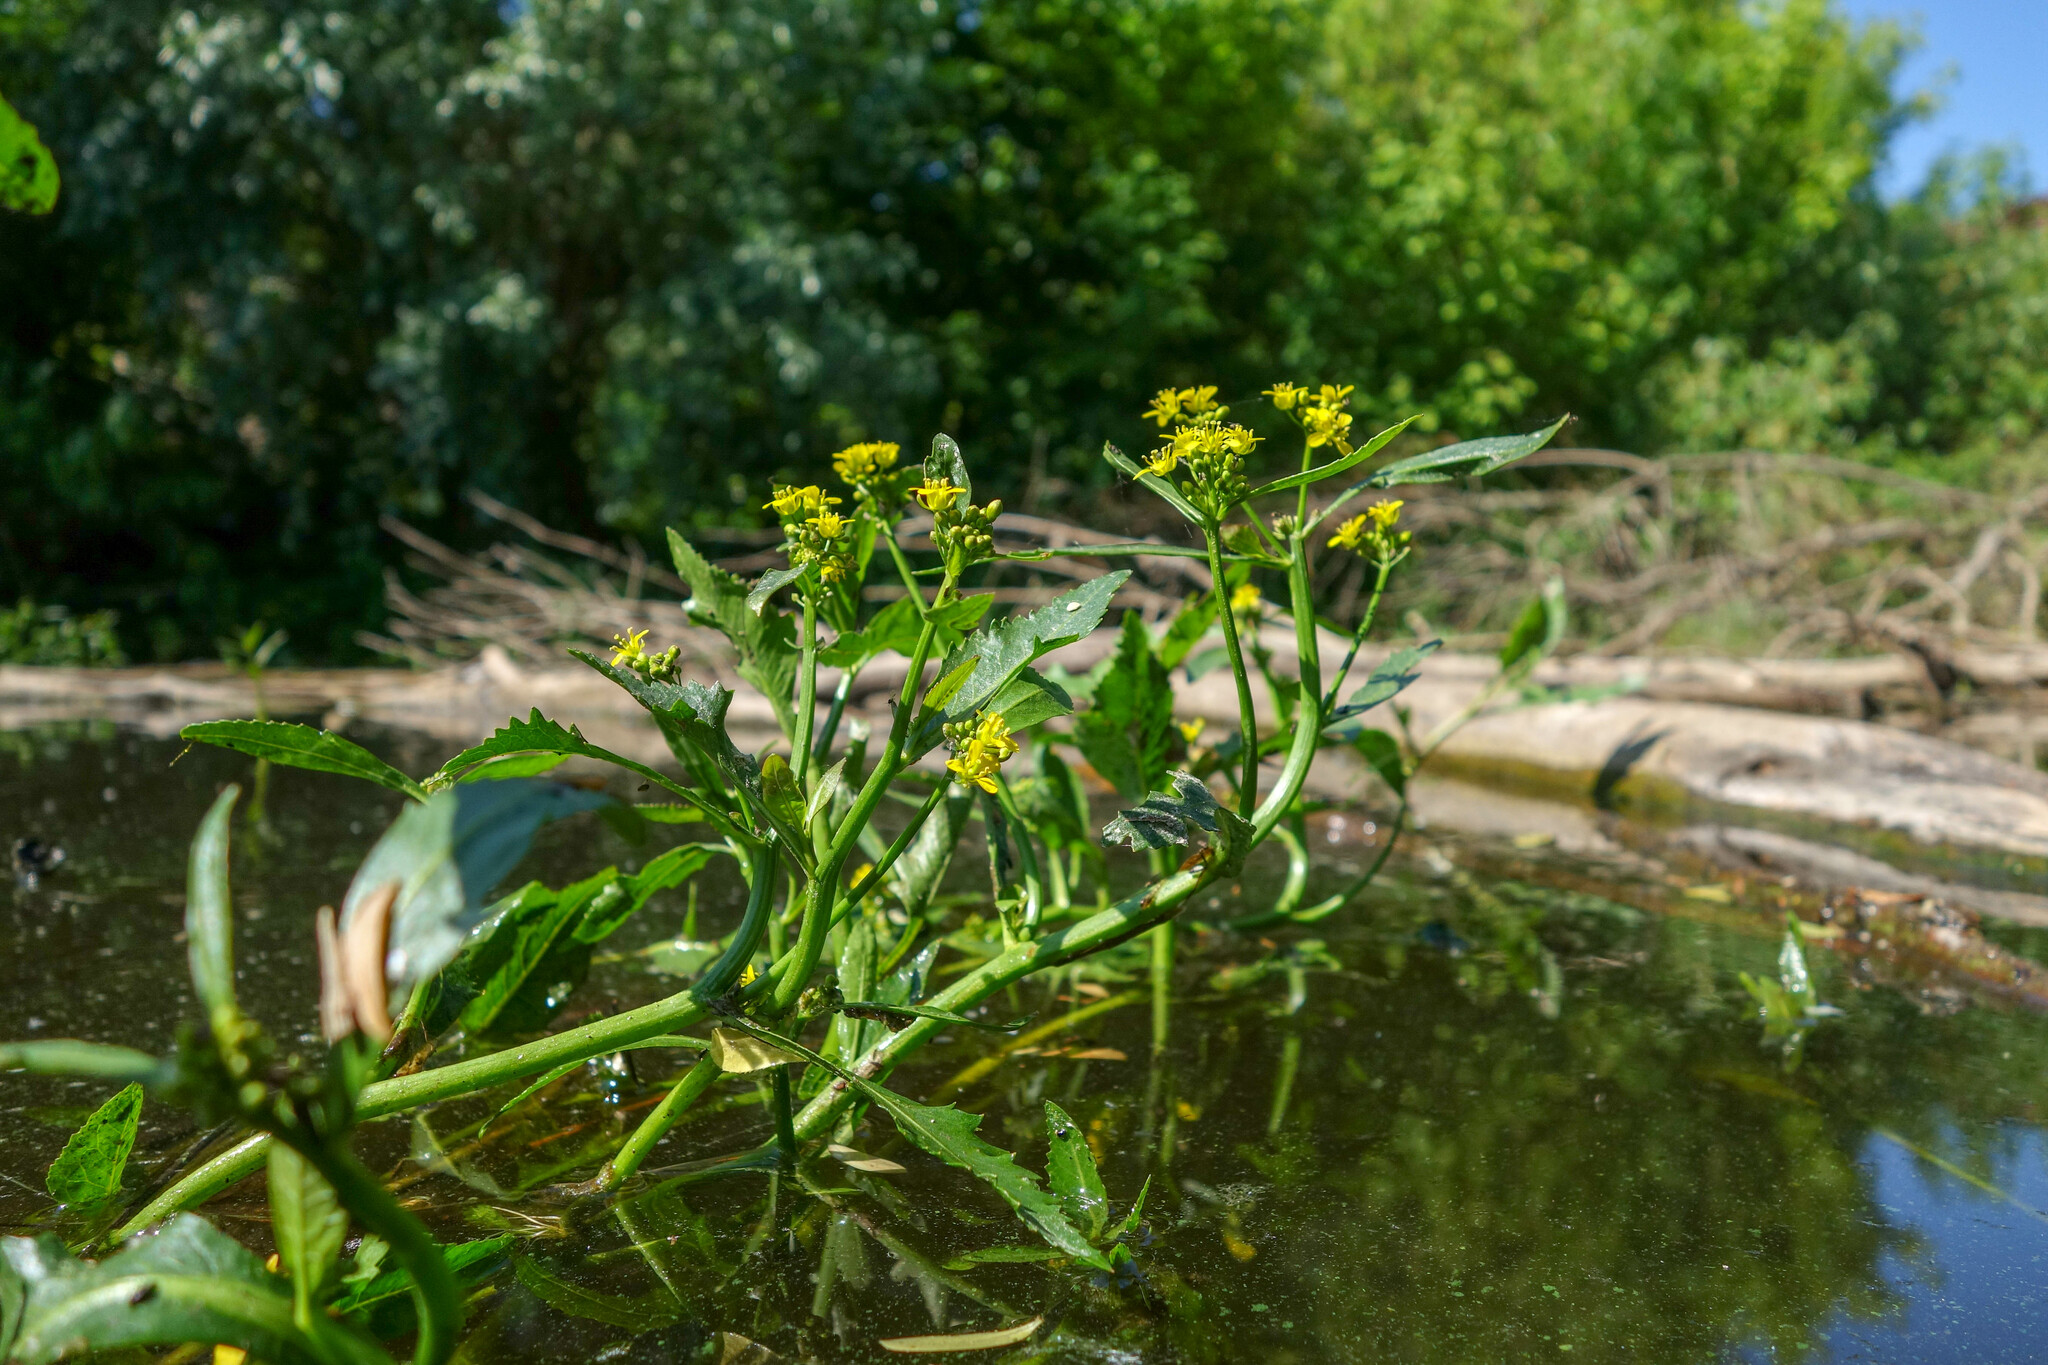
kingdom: Plantae
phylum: Tracheophyta
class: Magnoliopsida
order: Brassicales
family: Brassicaceae
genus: Rorippa
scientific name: Rorippa amphibia
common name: Great yellow-cress
